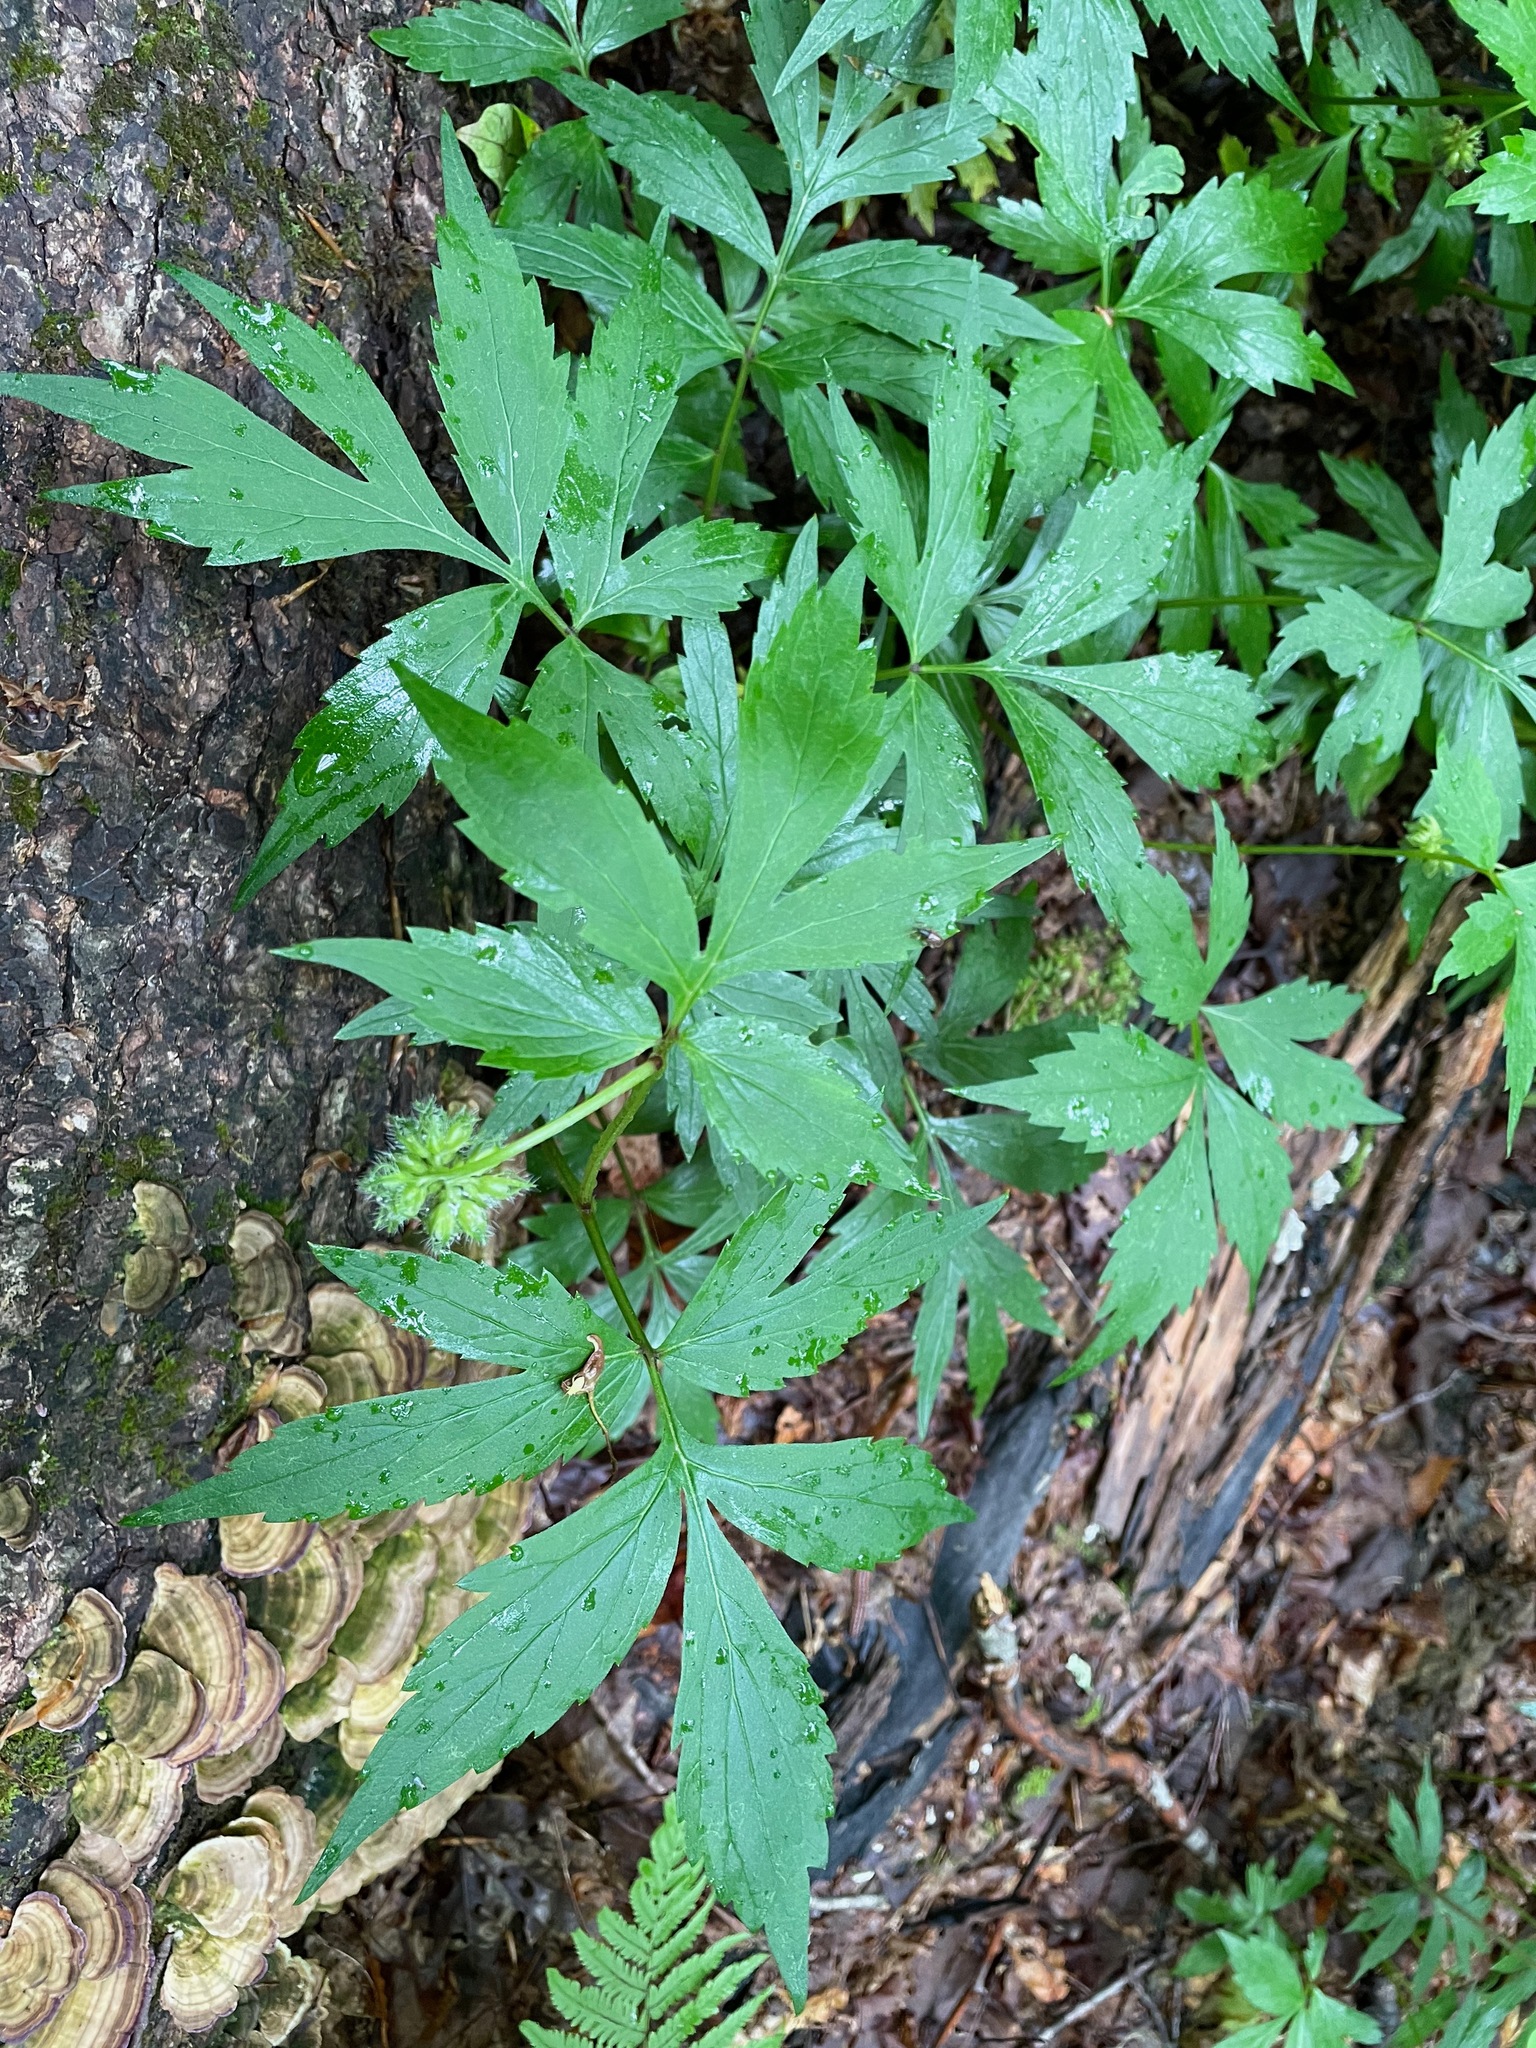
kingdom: Plantae
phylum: Tracheophyta
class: Magnoliopsida
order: Boraginales
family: Hydrophyllaceae
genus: Hydrophyllum
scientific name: Hydrophyllum virginianum
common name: Virginia waterleaf
